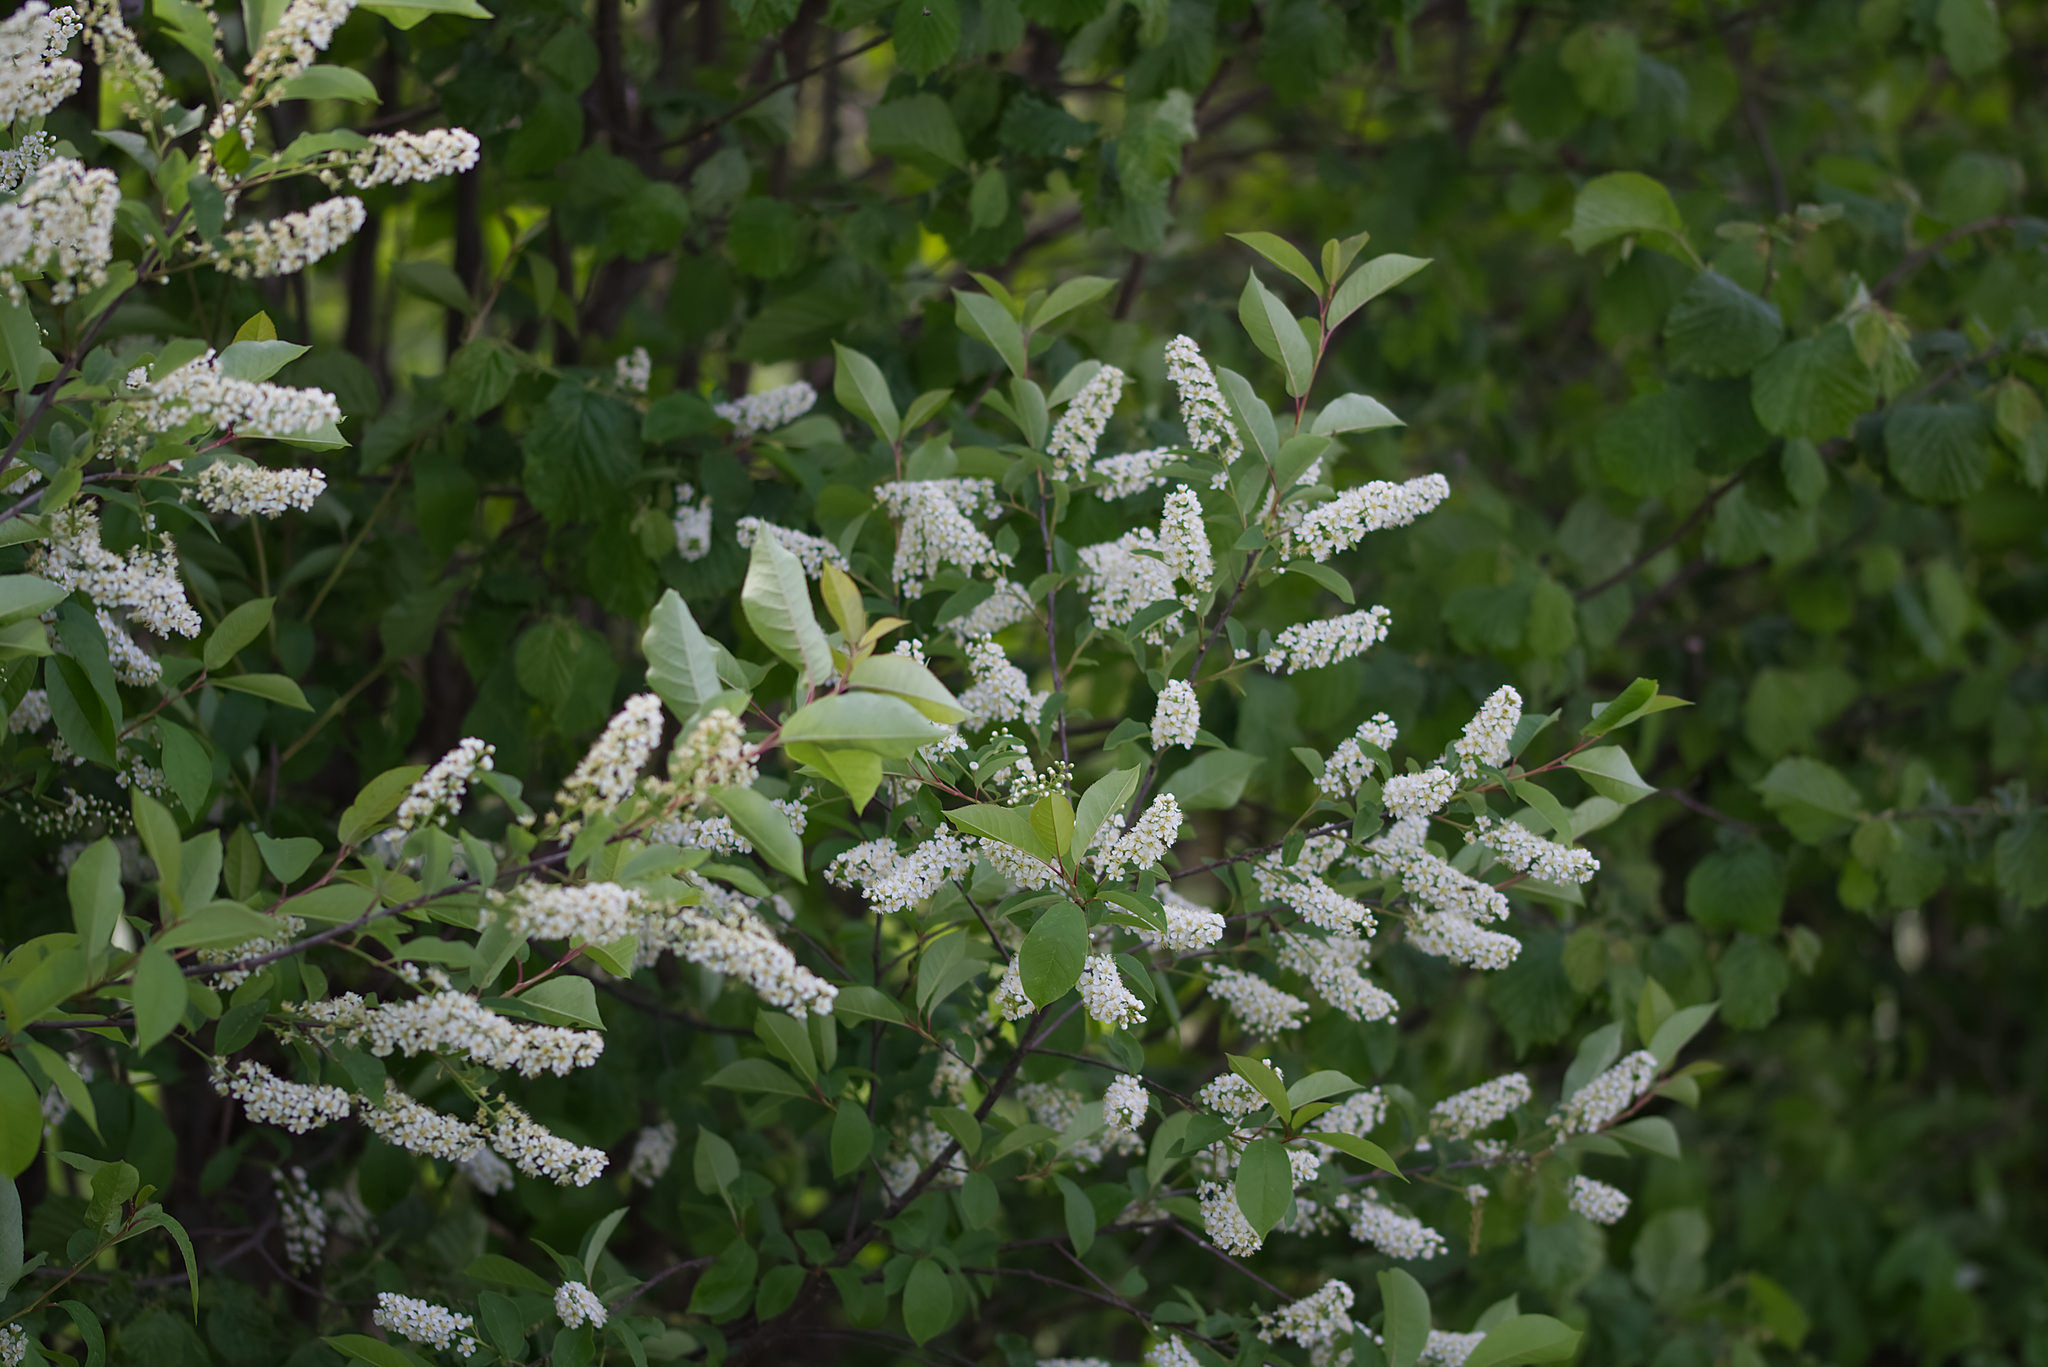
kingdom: Plantae
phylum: Tracheophyta
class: Magnoliopsida
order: Rosales
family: Rosaceae
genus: Prunus
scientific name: Prunus padus
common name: Bird cherry
